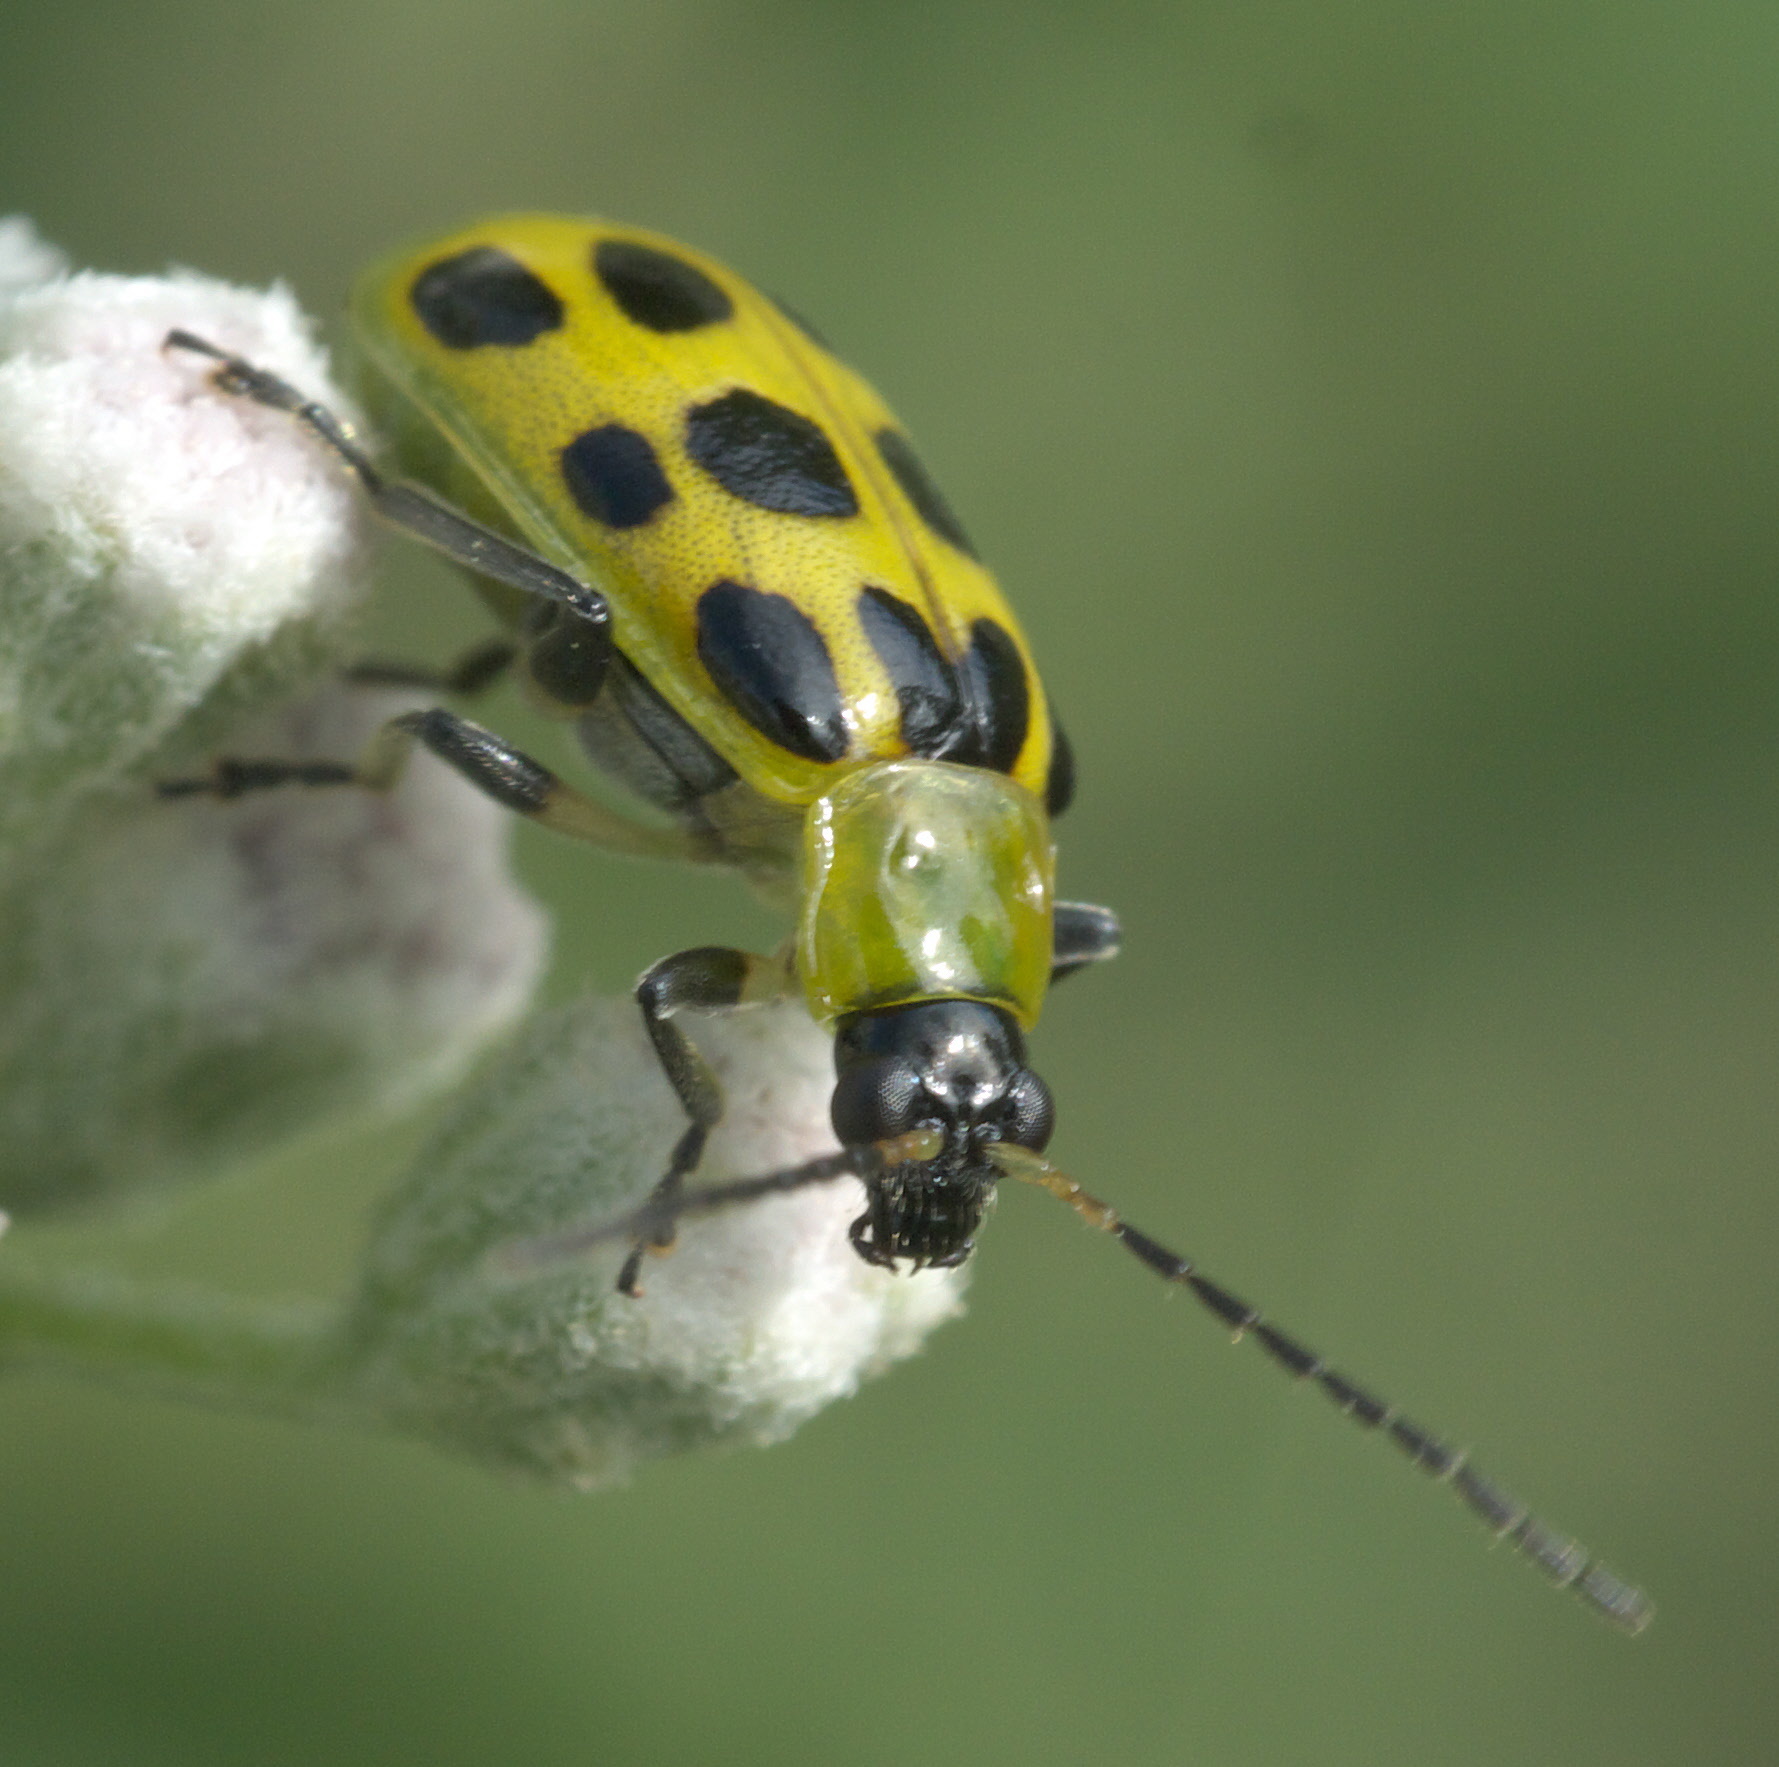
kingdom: Animalia
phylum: Arthropoda
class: Insecta
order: Coleoptera
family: Chrysomelidae
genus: Diabrotica
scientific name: Diabrotica undecimpunctata
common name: Spotted cucumber beetle
